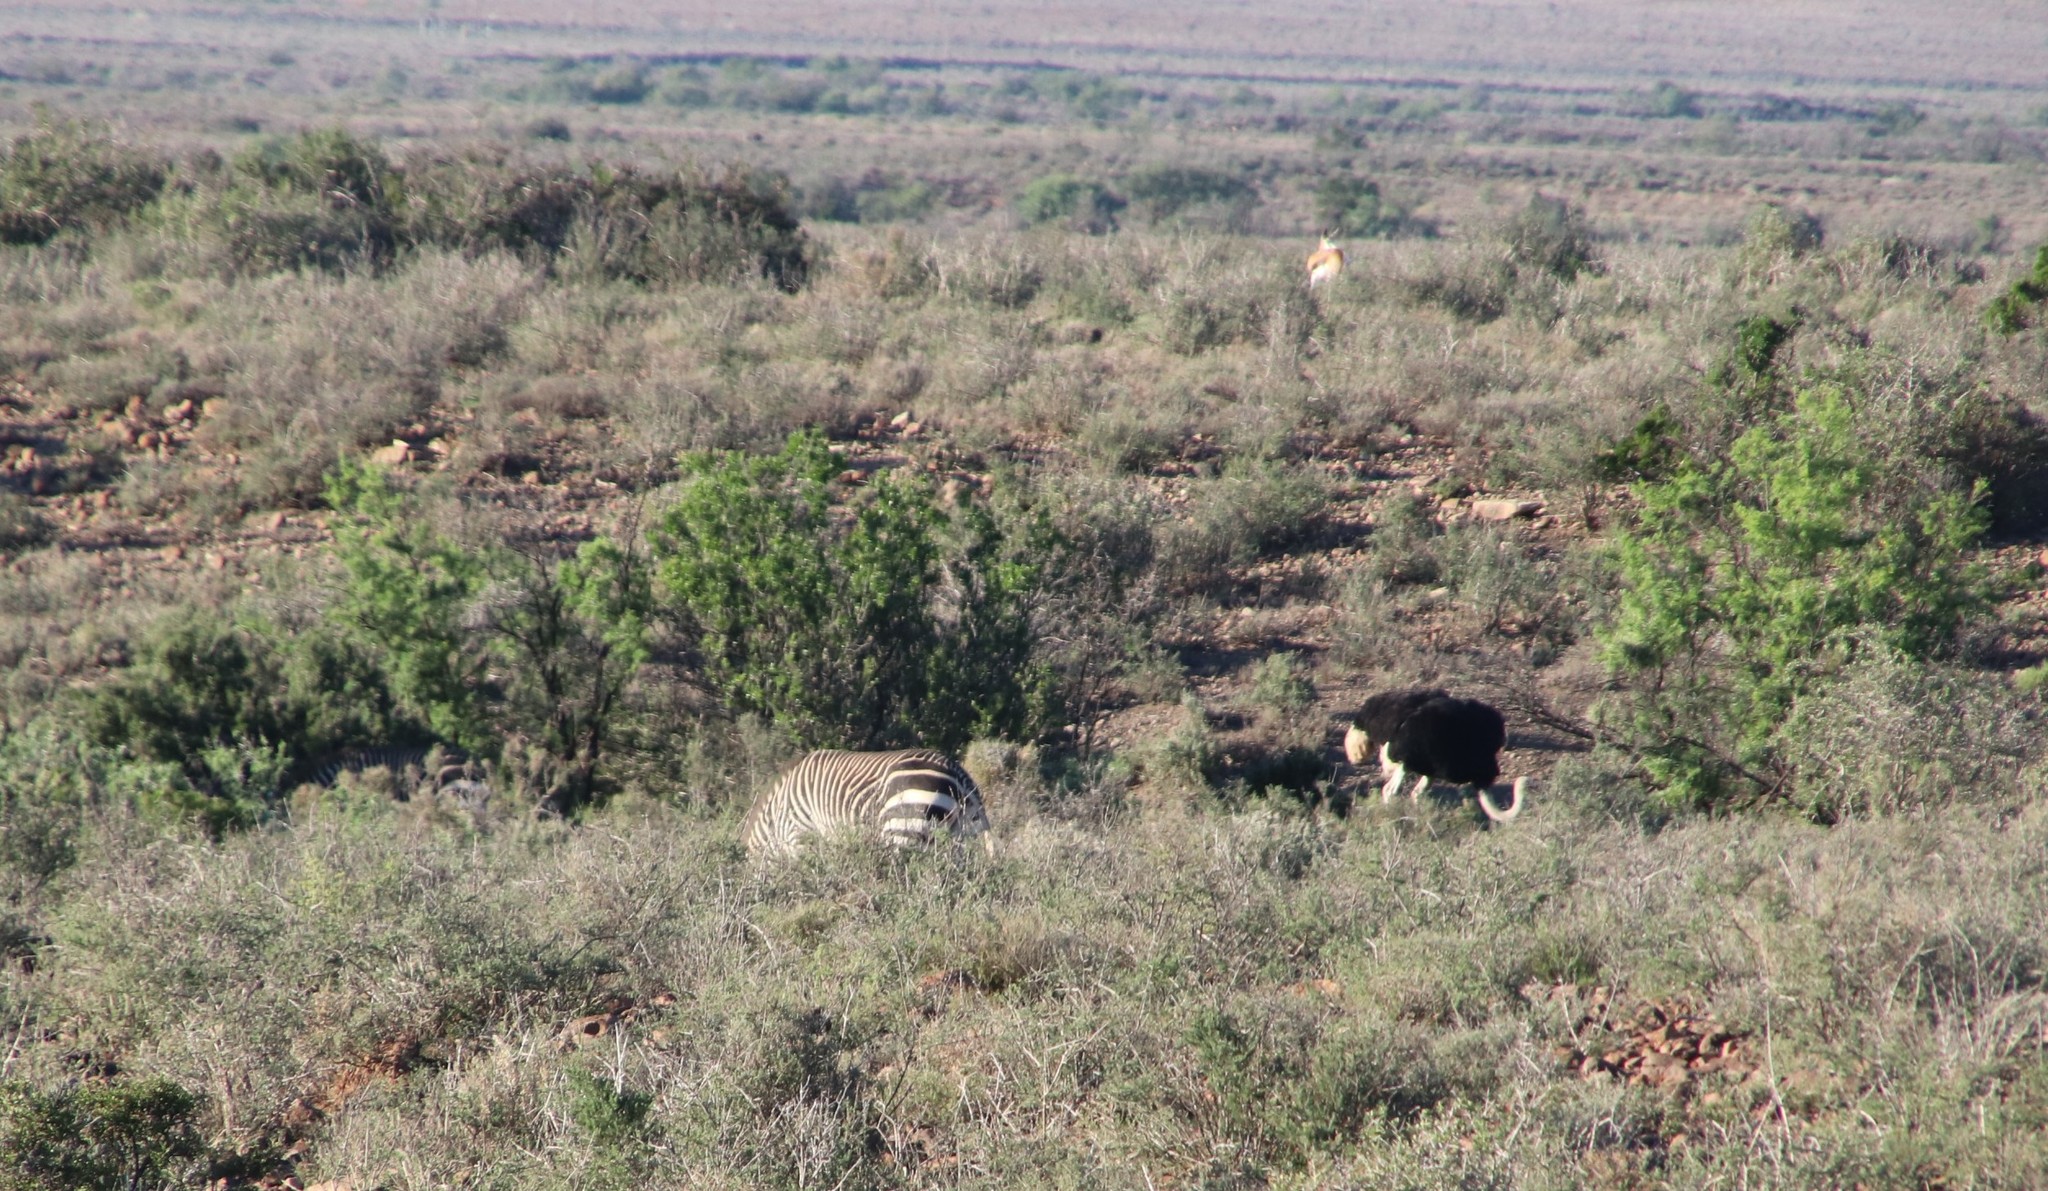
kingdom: Animalia
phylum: Chordata
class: Mammalia
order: Perissodactyla
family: Equidae
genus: Equus
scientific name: Equus zebra
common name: Mountain zebra
